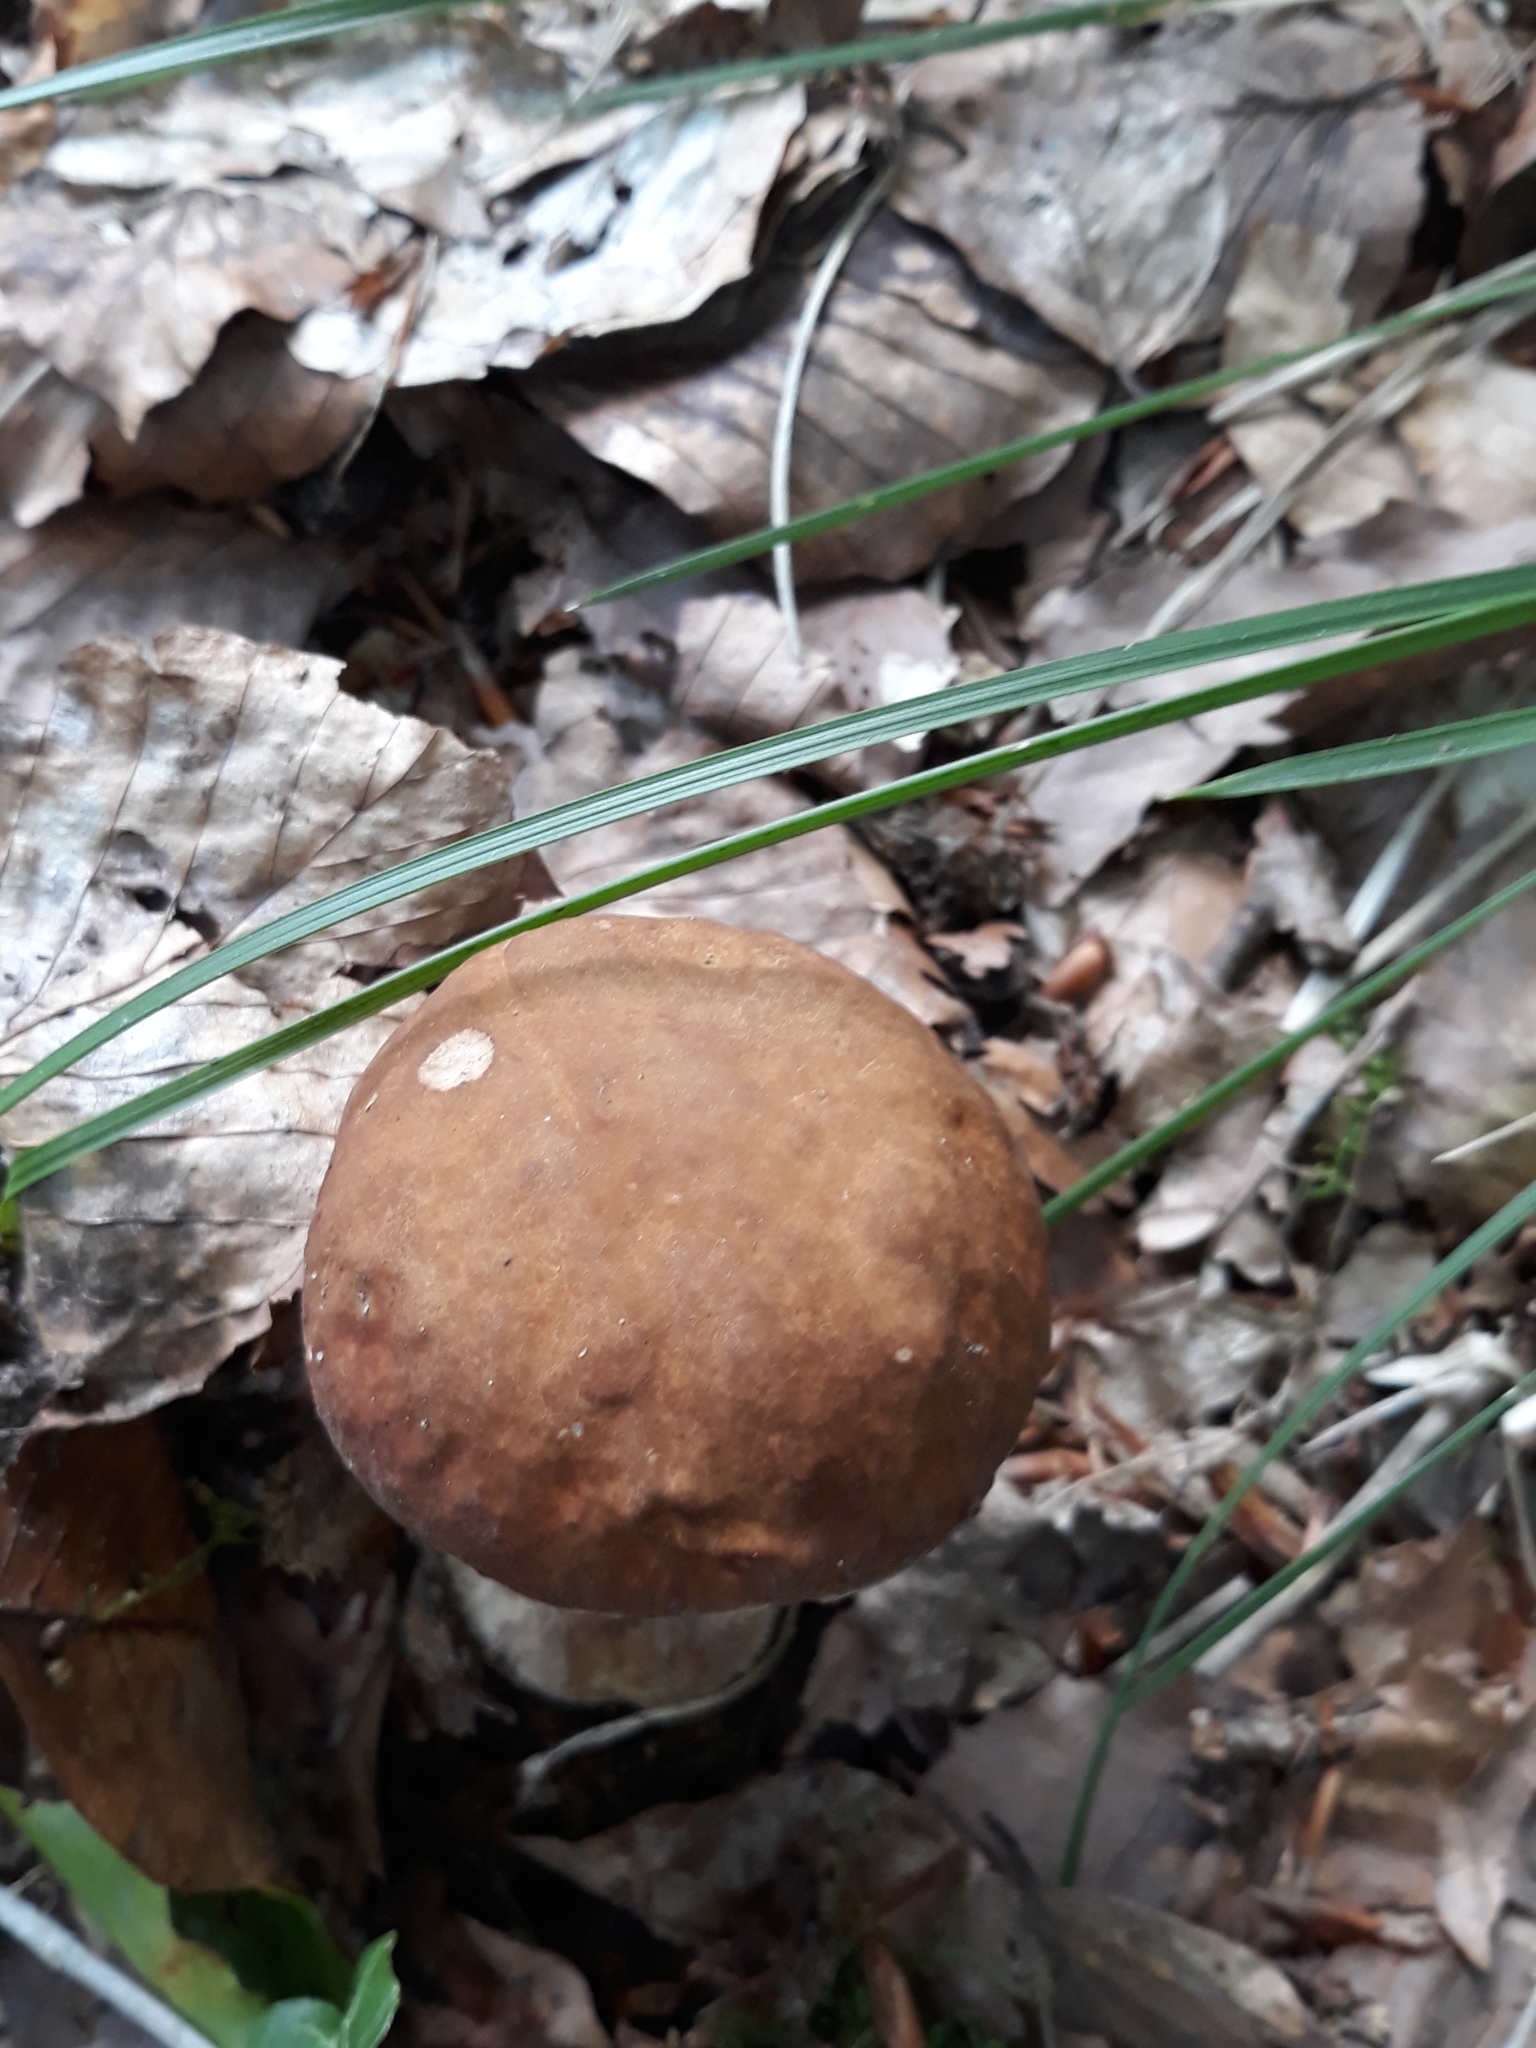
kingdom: Fungi
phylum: Basidiomycota
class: Agaricomycetes
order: Boletales
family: Boletaceae
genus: Boletus
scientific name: Boletus reticulatus
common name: Summer bolete
